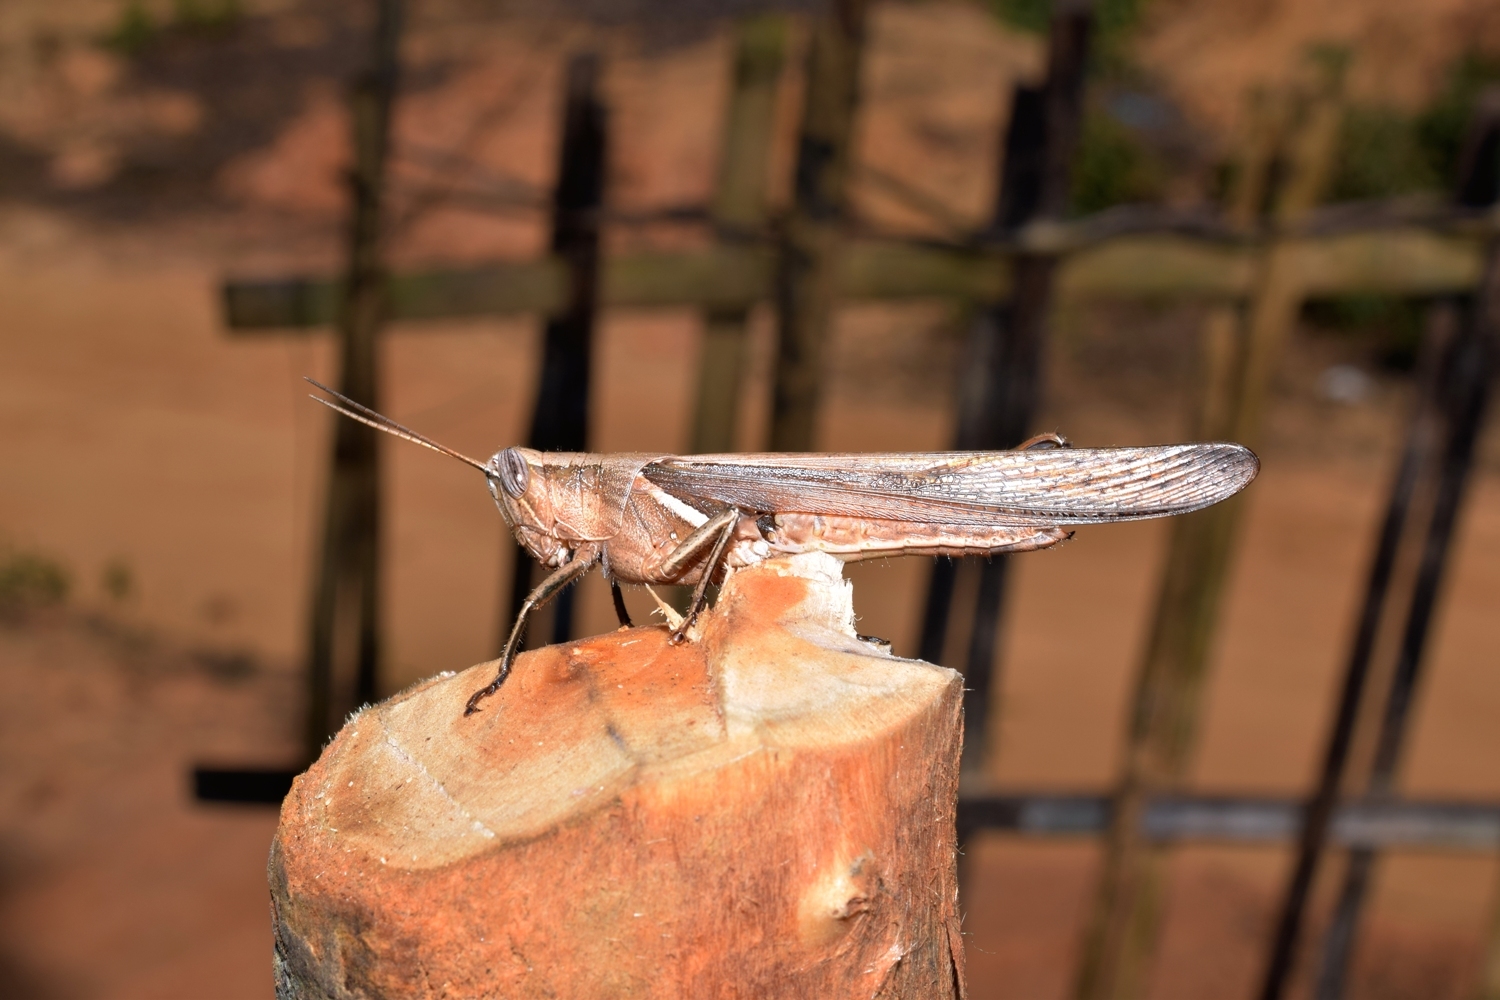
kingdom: Animalia
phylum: Arthropoda
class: Insecta
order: Orthoptera
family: Acrididae
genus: Stenocatantops
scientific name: Stenocatantops splendens
